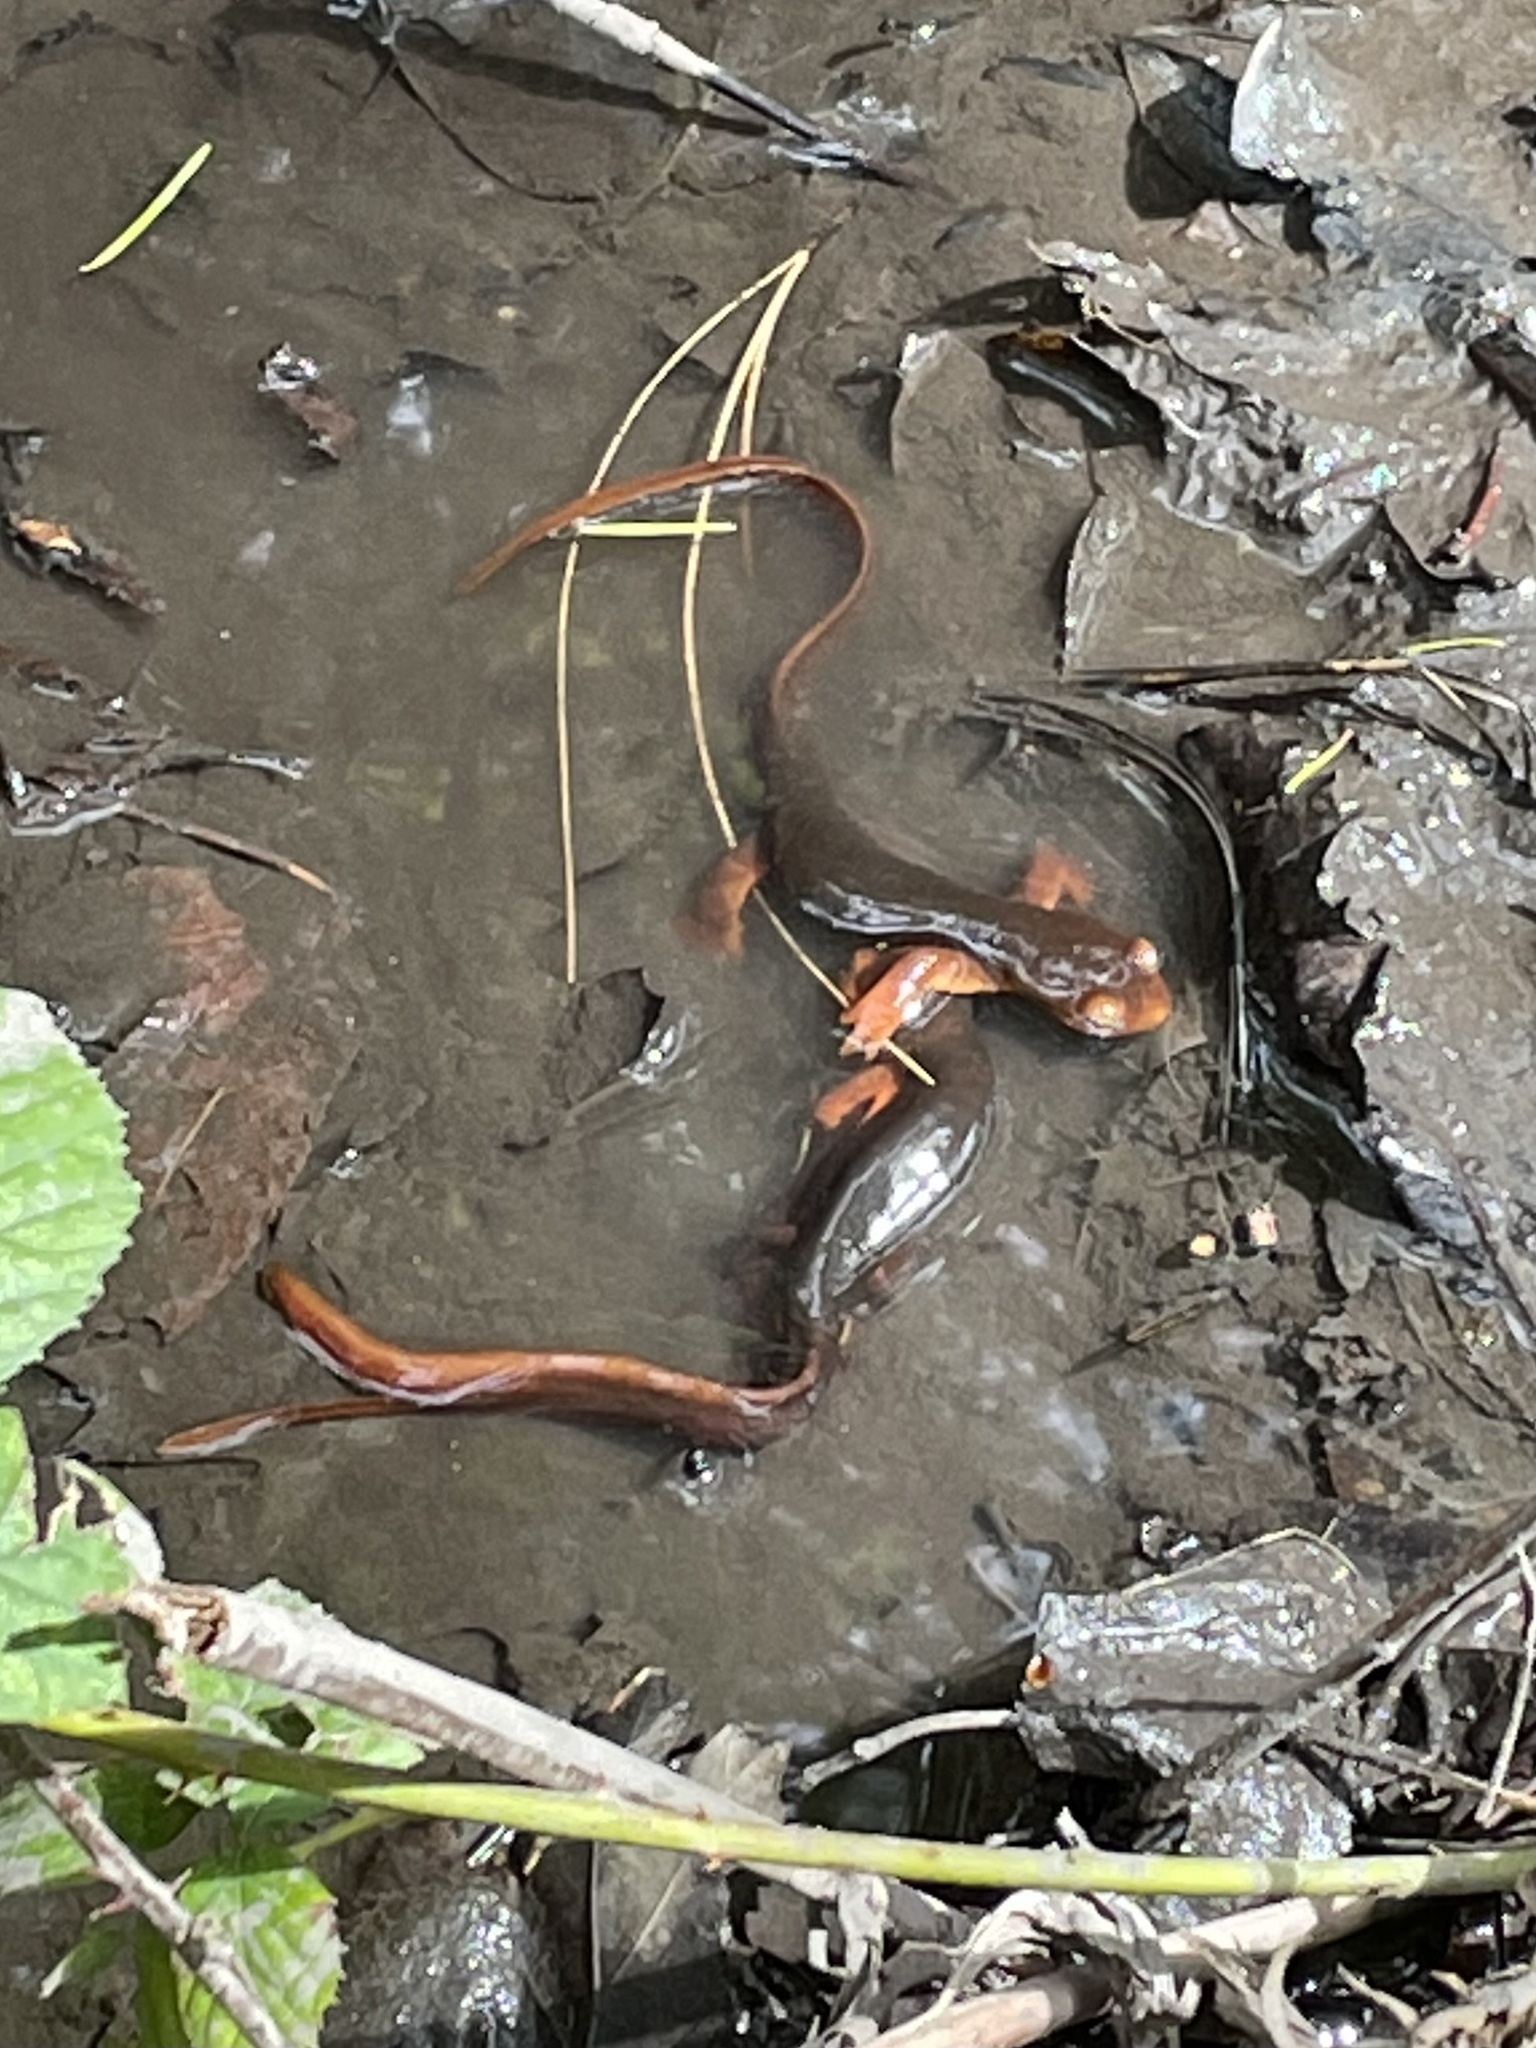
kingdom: Animalia
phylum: Chordata
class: Amphibia
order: Caudata
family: Salamandridae
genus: Taricha
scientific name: Taricha sierrae
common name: Sierra newt
